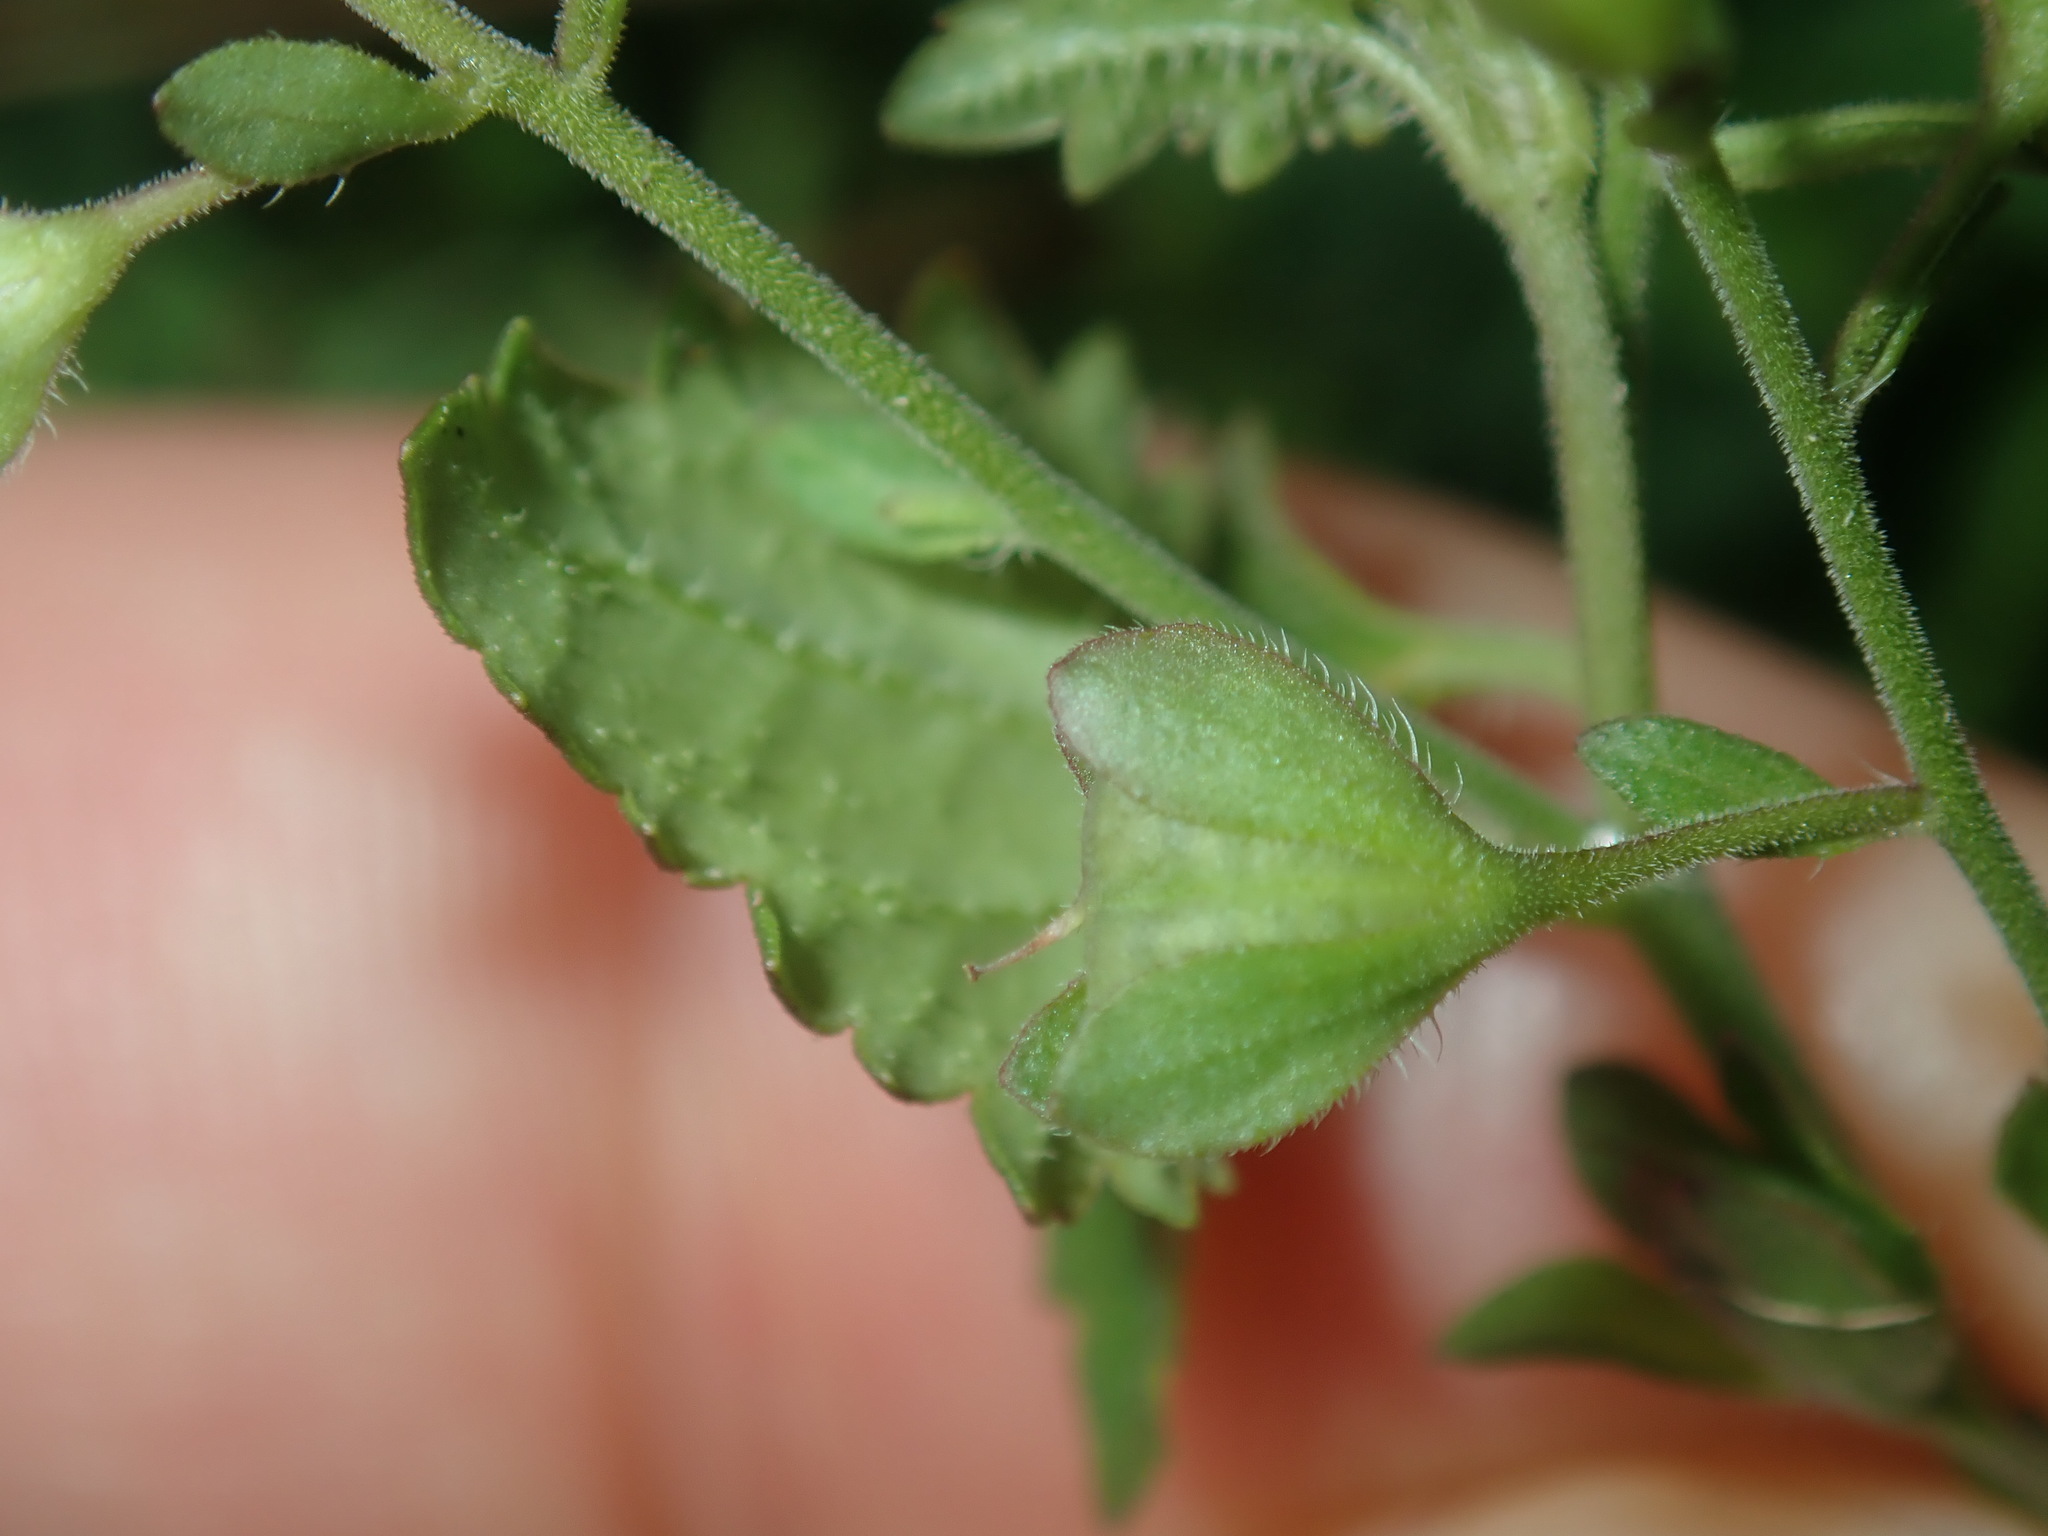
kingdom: Plantae
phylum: Tracheophyta
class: Magnoliopsida
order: Lamiales
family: Plantaginaceae
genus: Veronica
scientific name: Veronica plebeia
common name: Speedwell
